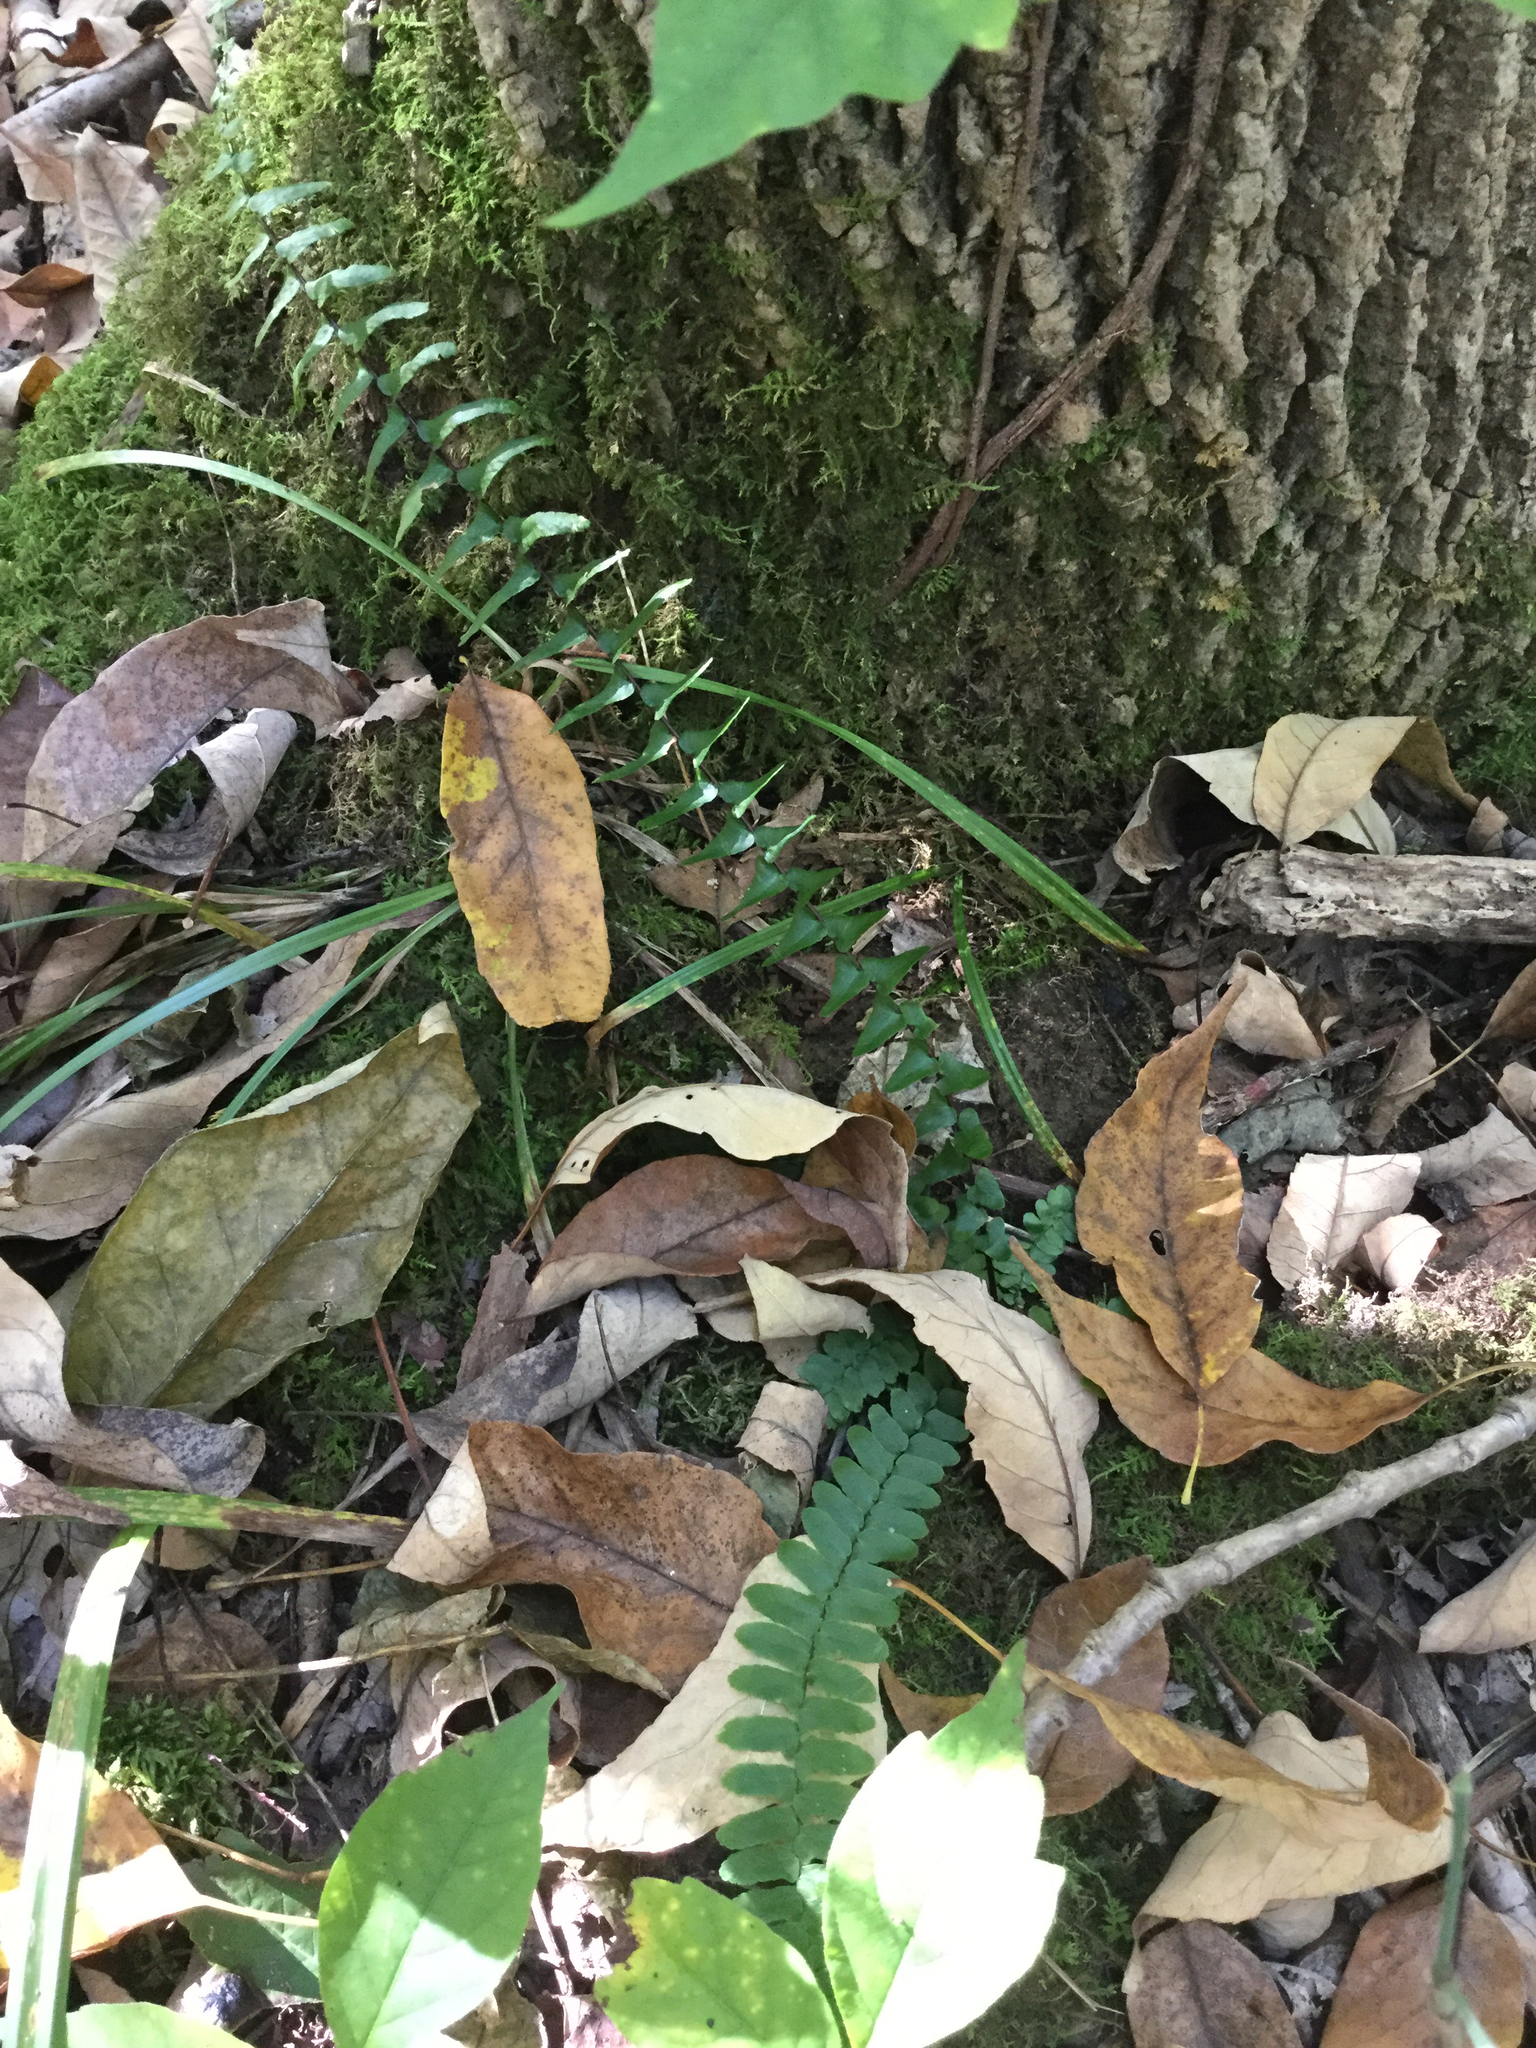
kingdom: Plantae
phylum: Tracheophyta
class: Polypodiopsida
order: Polypodiales
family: Aspleniaceae
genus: Asplenium
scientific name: Asplenium platyneuron
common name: Ebony spleenwort
